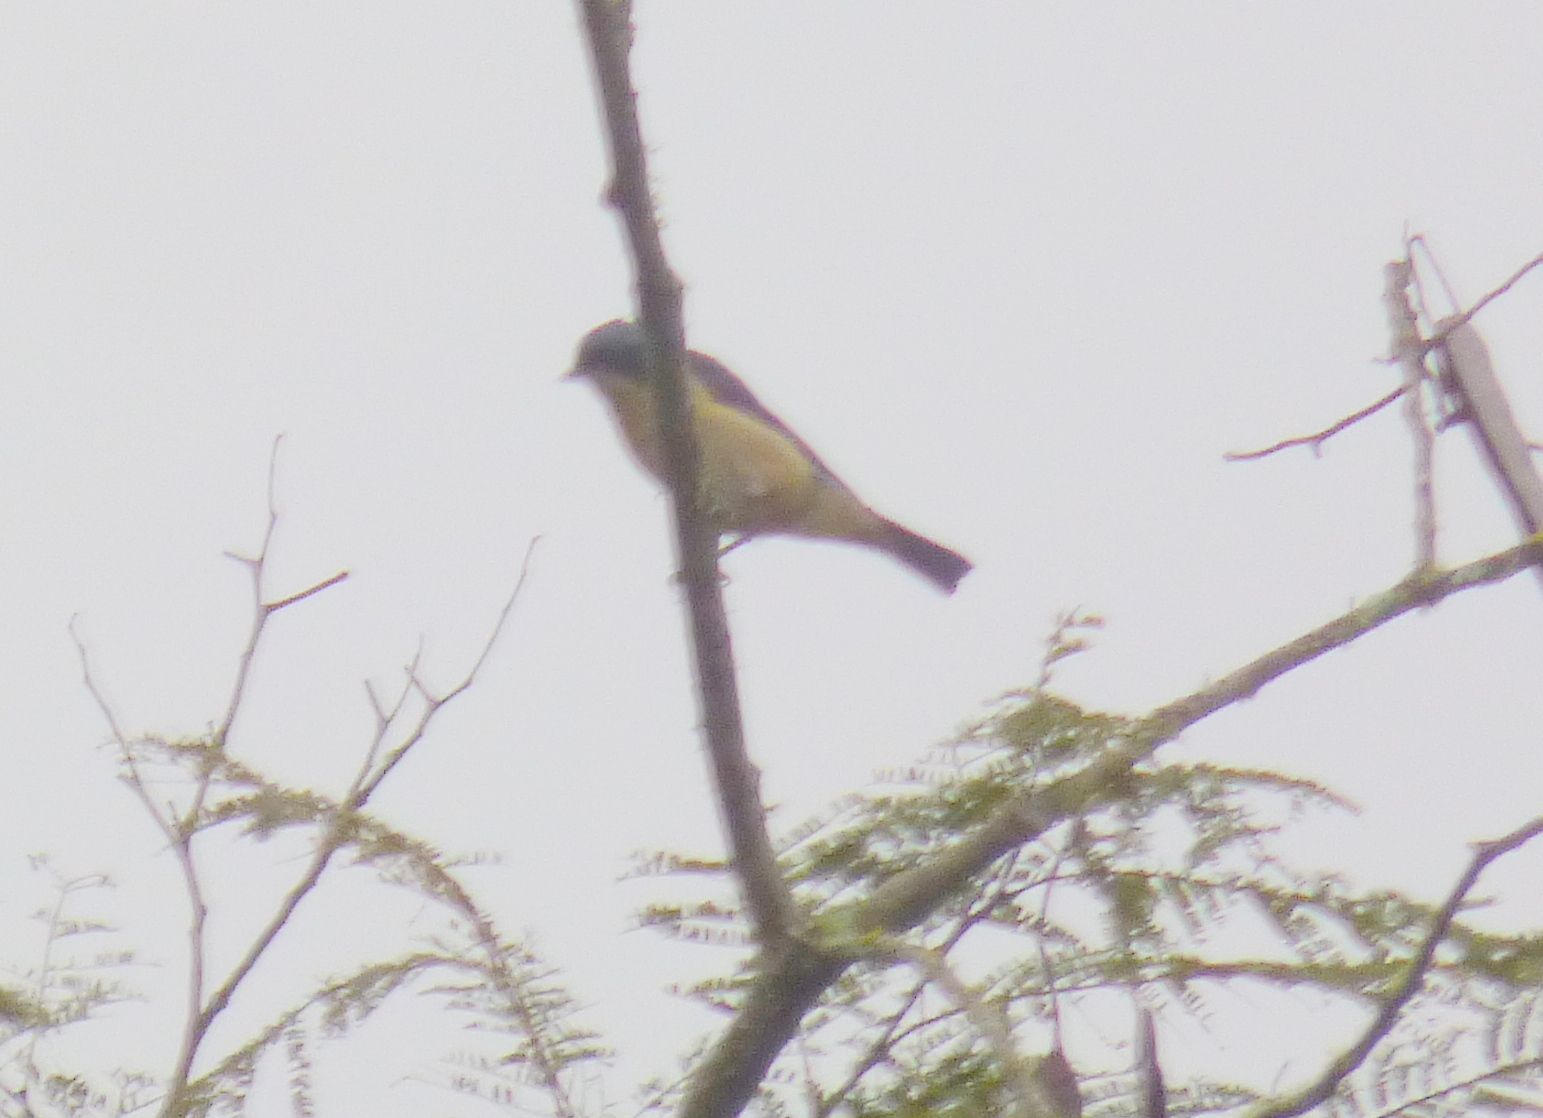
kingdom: Animalia
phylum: Chordata
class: Aves
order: Passeriformes
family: Thraupidae
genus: Pipraeidea
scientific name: Pipraeidea melanonota
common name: Fawn-breasted tanager
